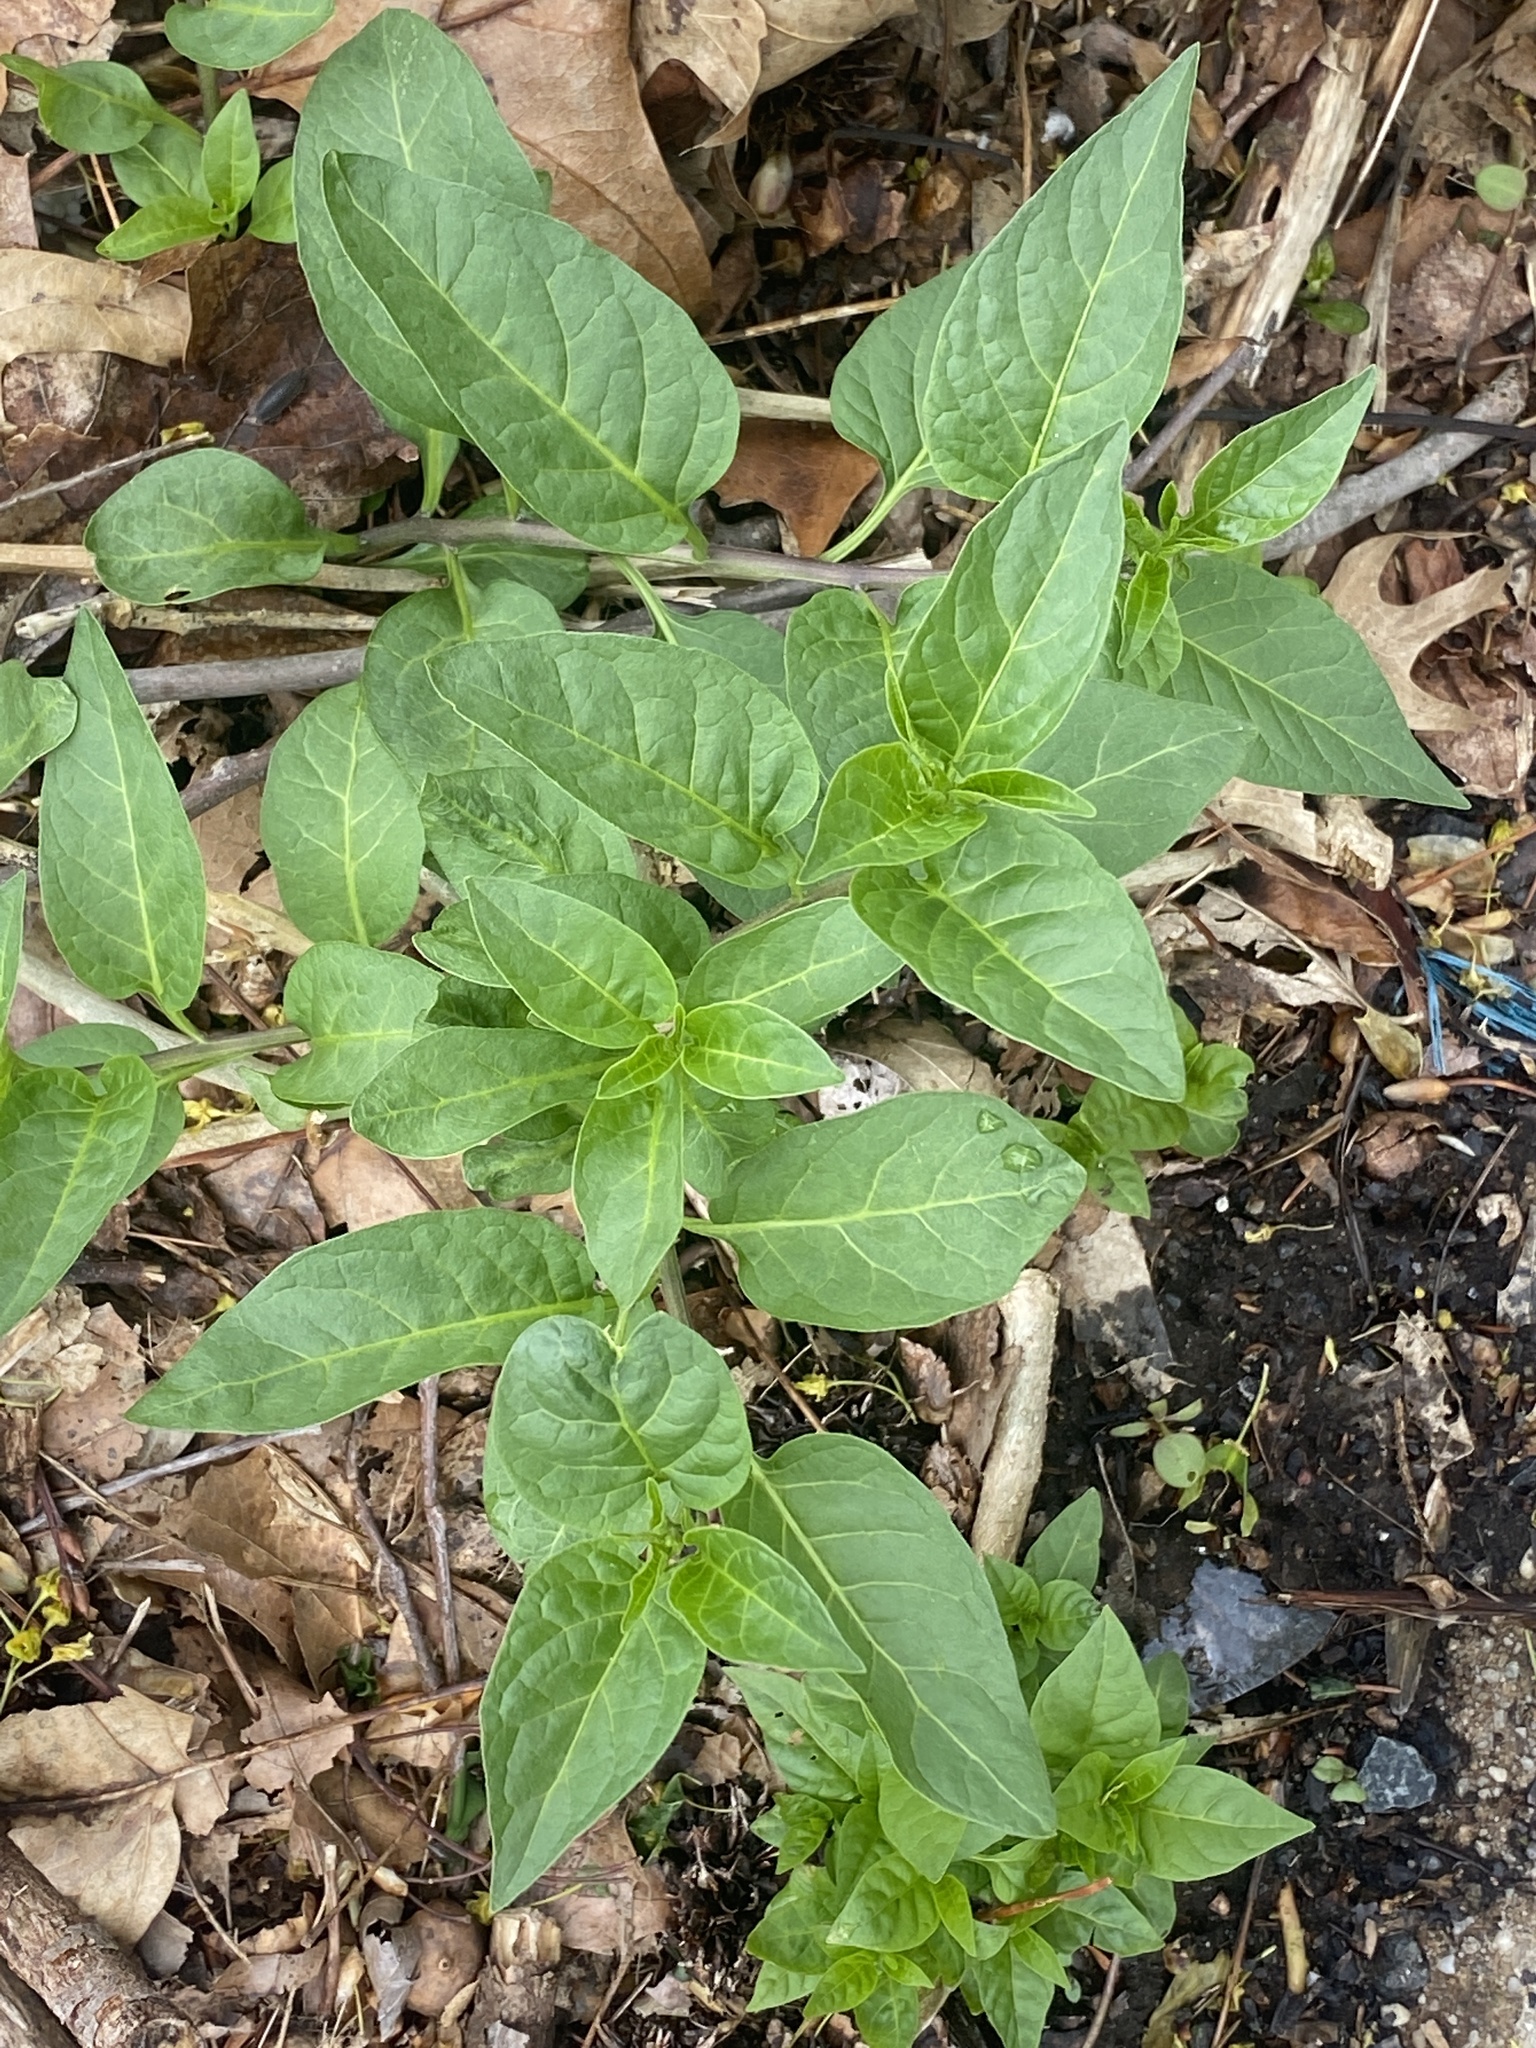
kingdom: Plantae
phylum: Tracheophyta
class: Magnoliopsida
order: Solanales
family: Solanaceae
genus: Solanum
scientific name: Solanum dulcamara
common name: Climbing nightshade
